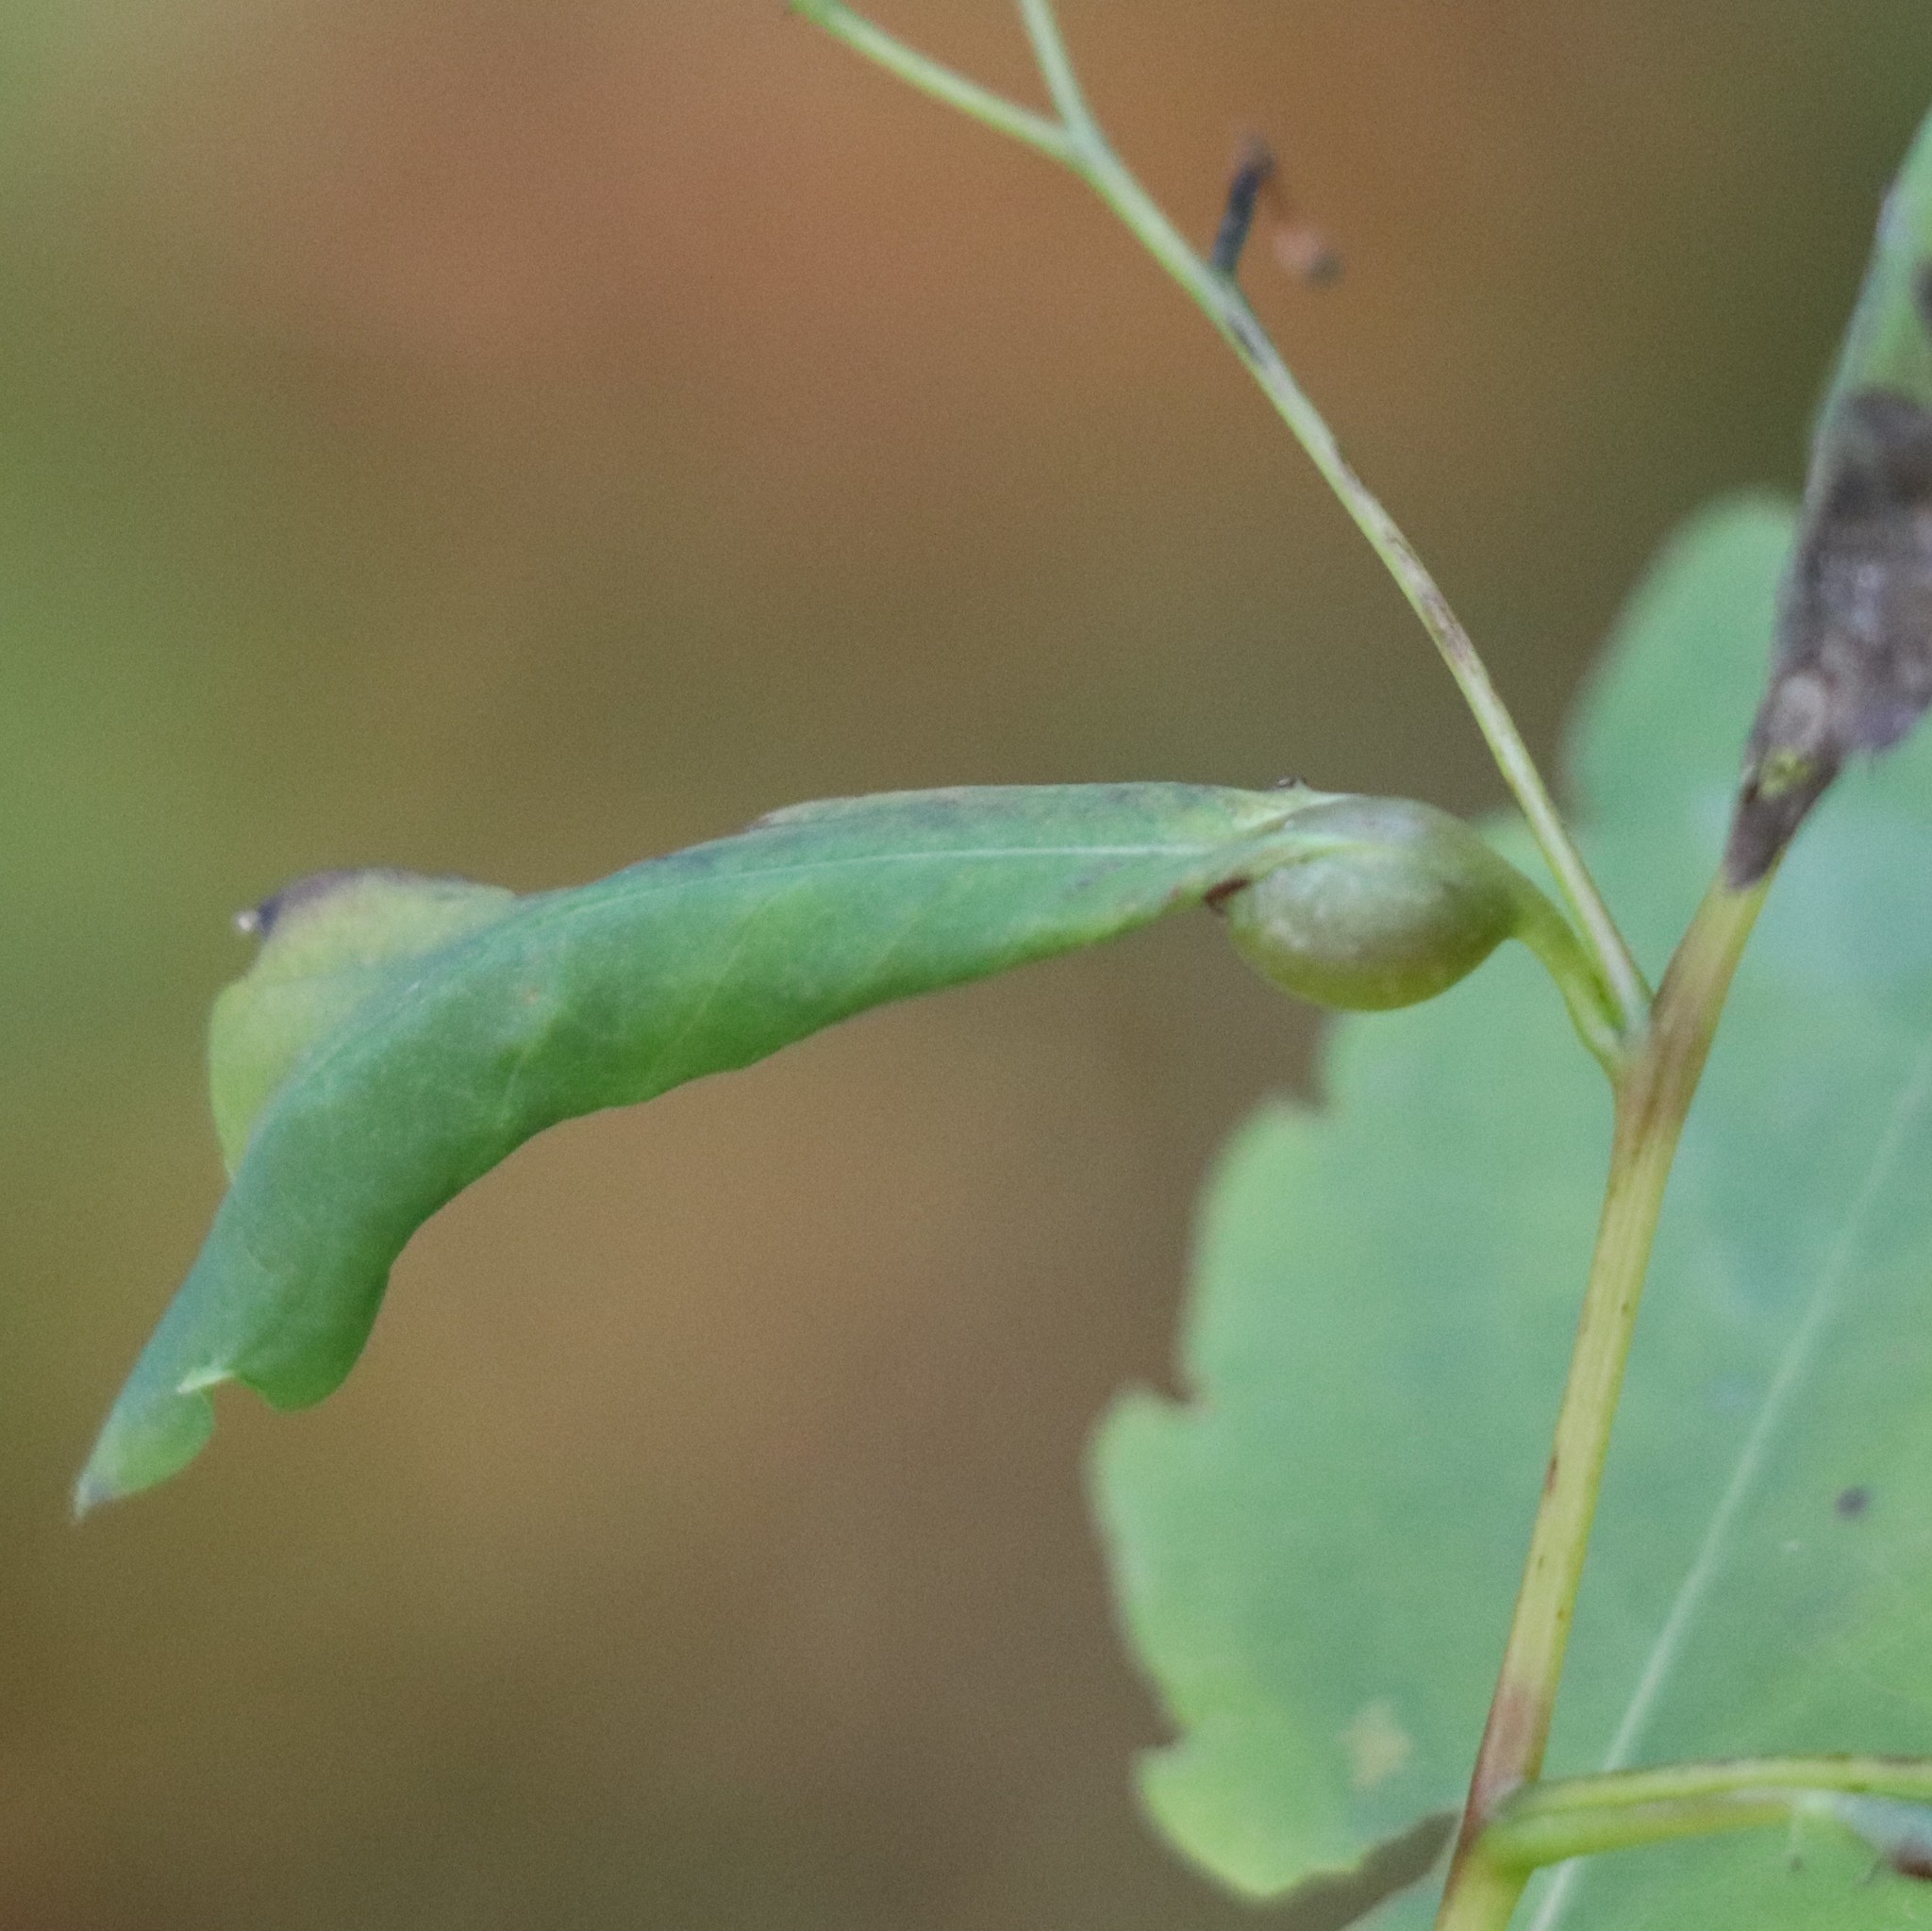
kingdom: Animalia
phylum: Arthropoda
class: Insecta
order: Diptera
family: Cecidomyiidae
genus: Neolasioptera
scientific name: Neolasioptera impatientifolia
